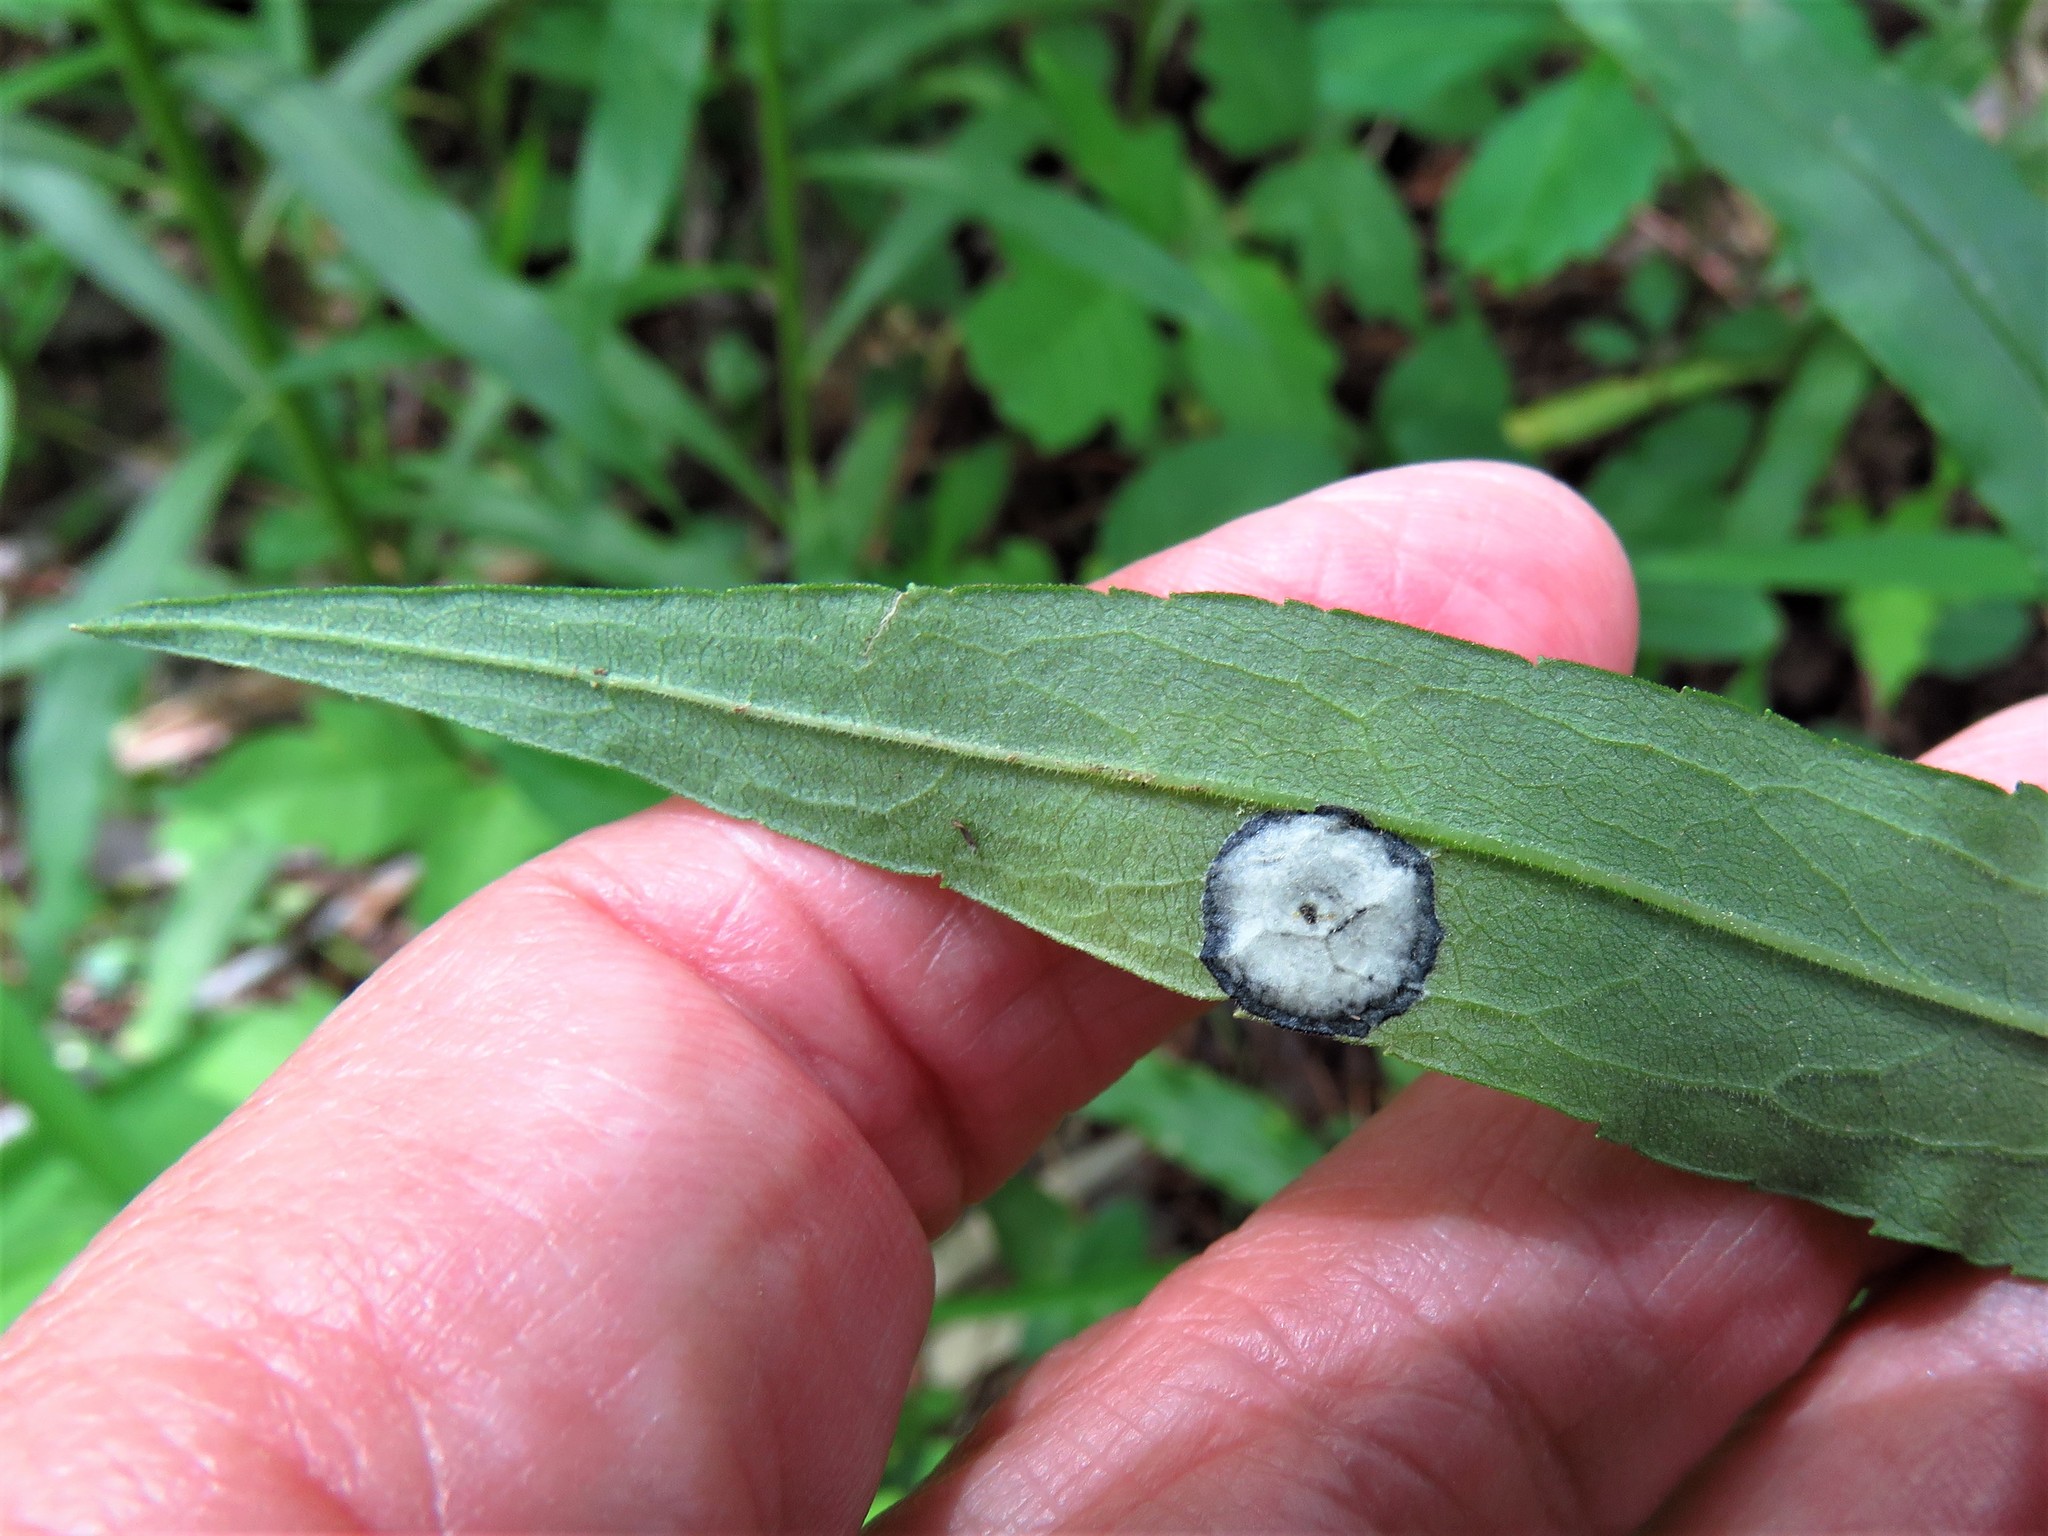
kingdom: Animalia
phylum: Arthropoda
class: Insecta
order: Diptera
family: Cecidomyiidae
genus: Asteromyia
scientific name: Asteromyia carbonifera
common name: Carbonifera goldenrod gall midge
